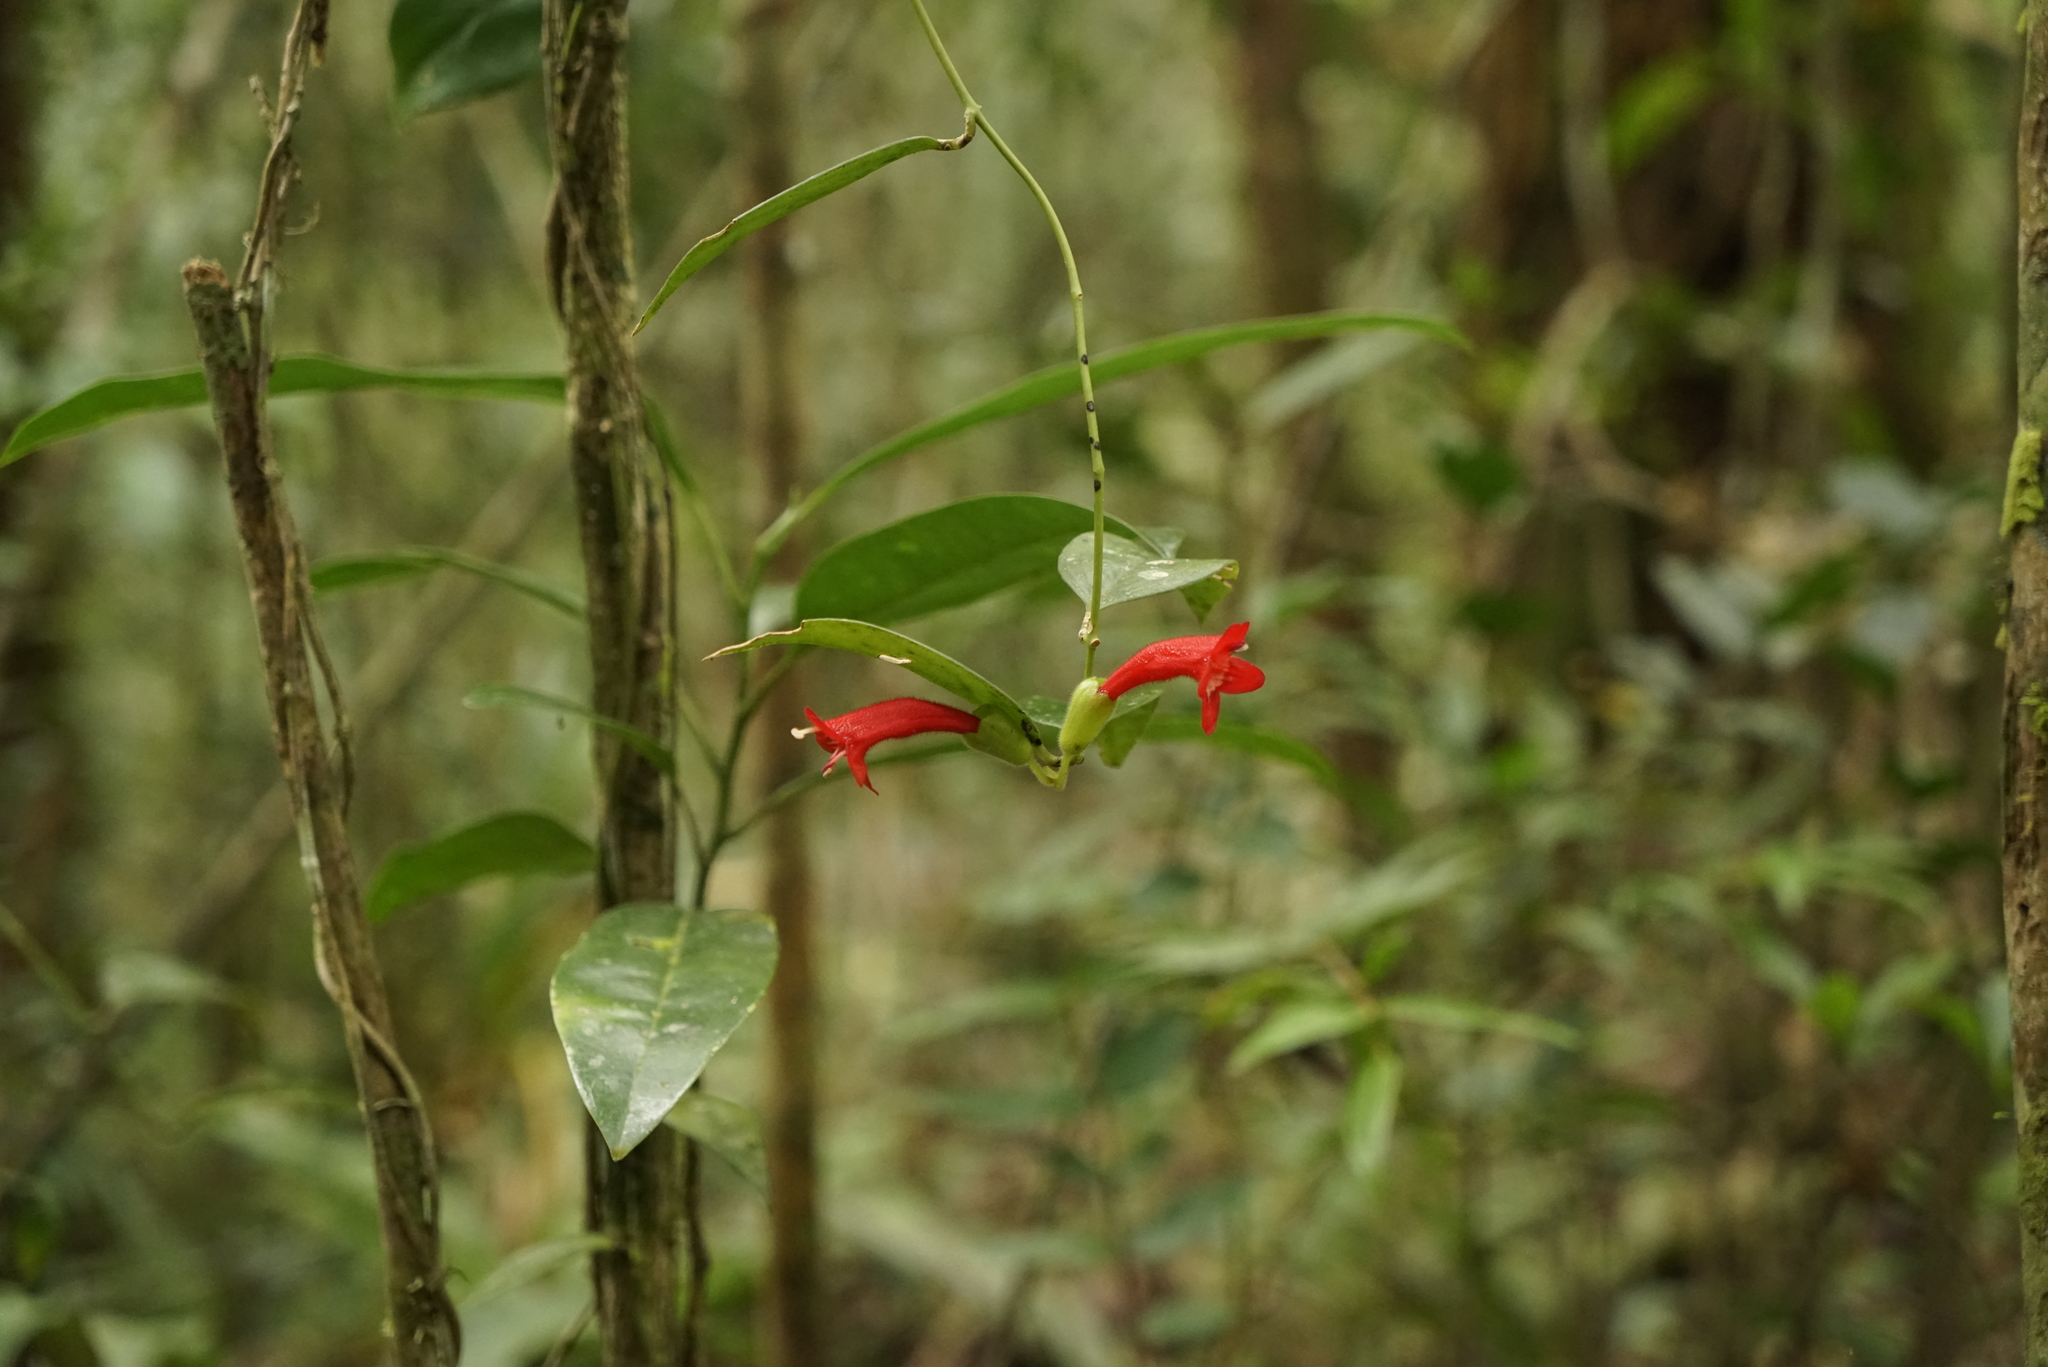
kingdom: Plantae
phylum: Tracheophyta
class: Magnoliopsida
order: Lamiales
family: Gesneriaceae
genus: Aeschynanthus
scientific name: Aeschynanthus siphonanthus
